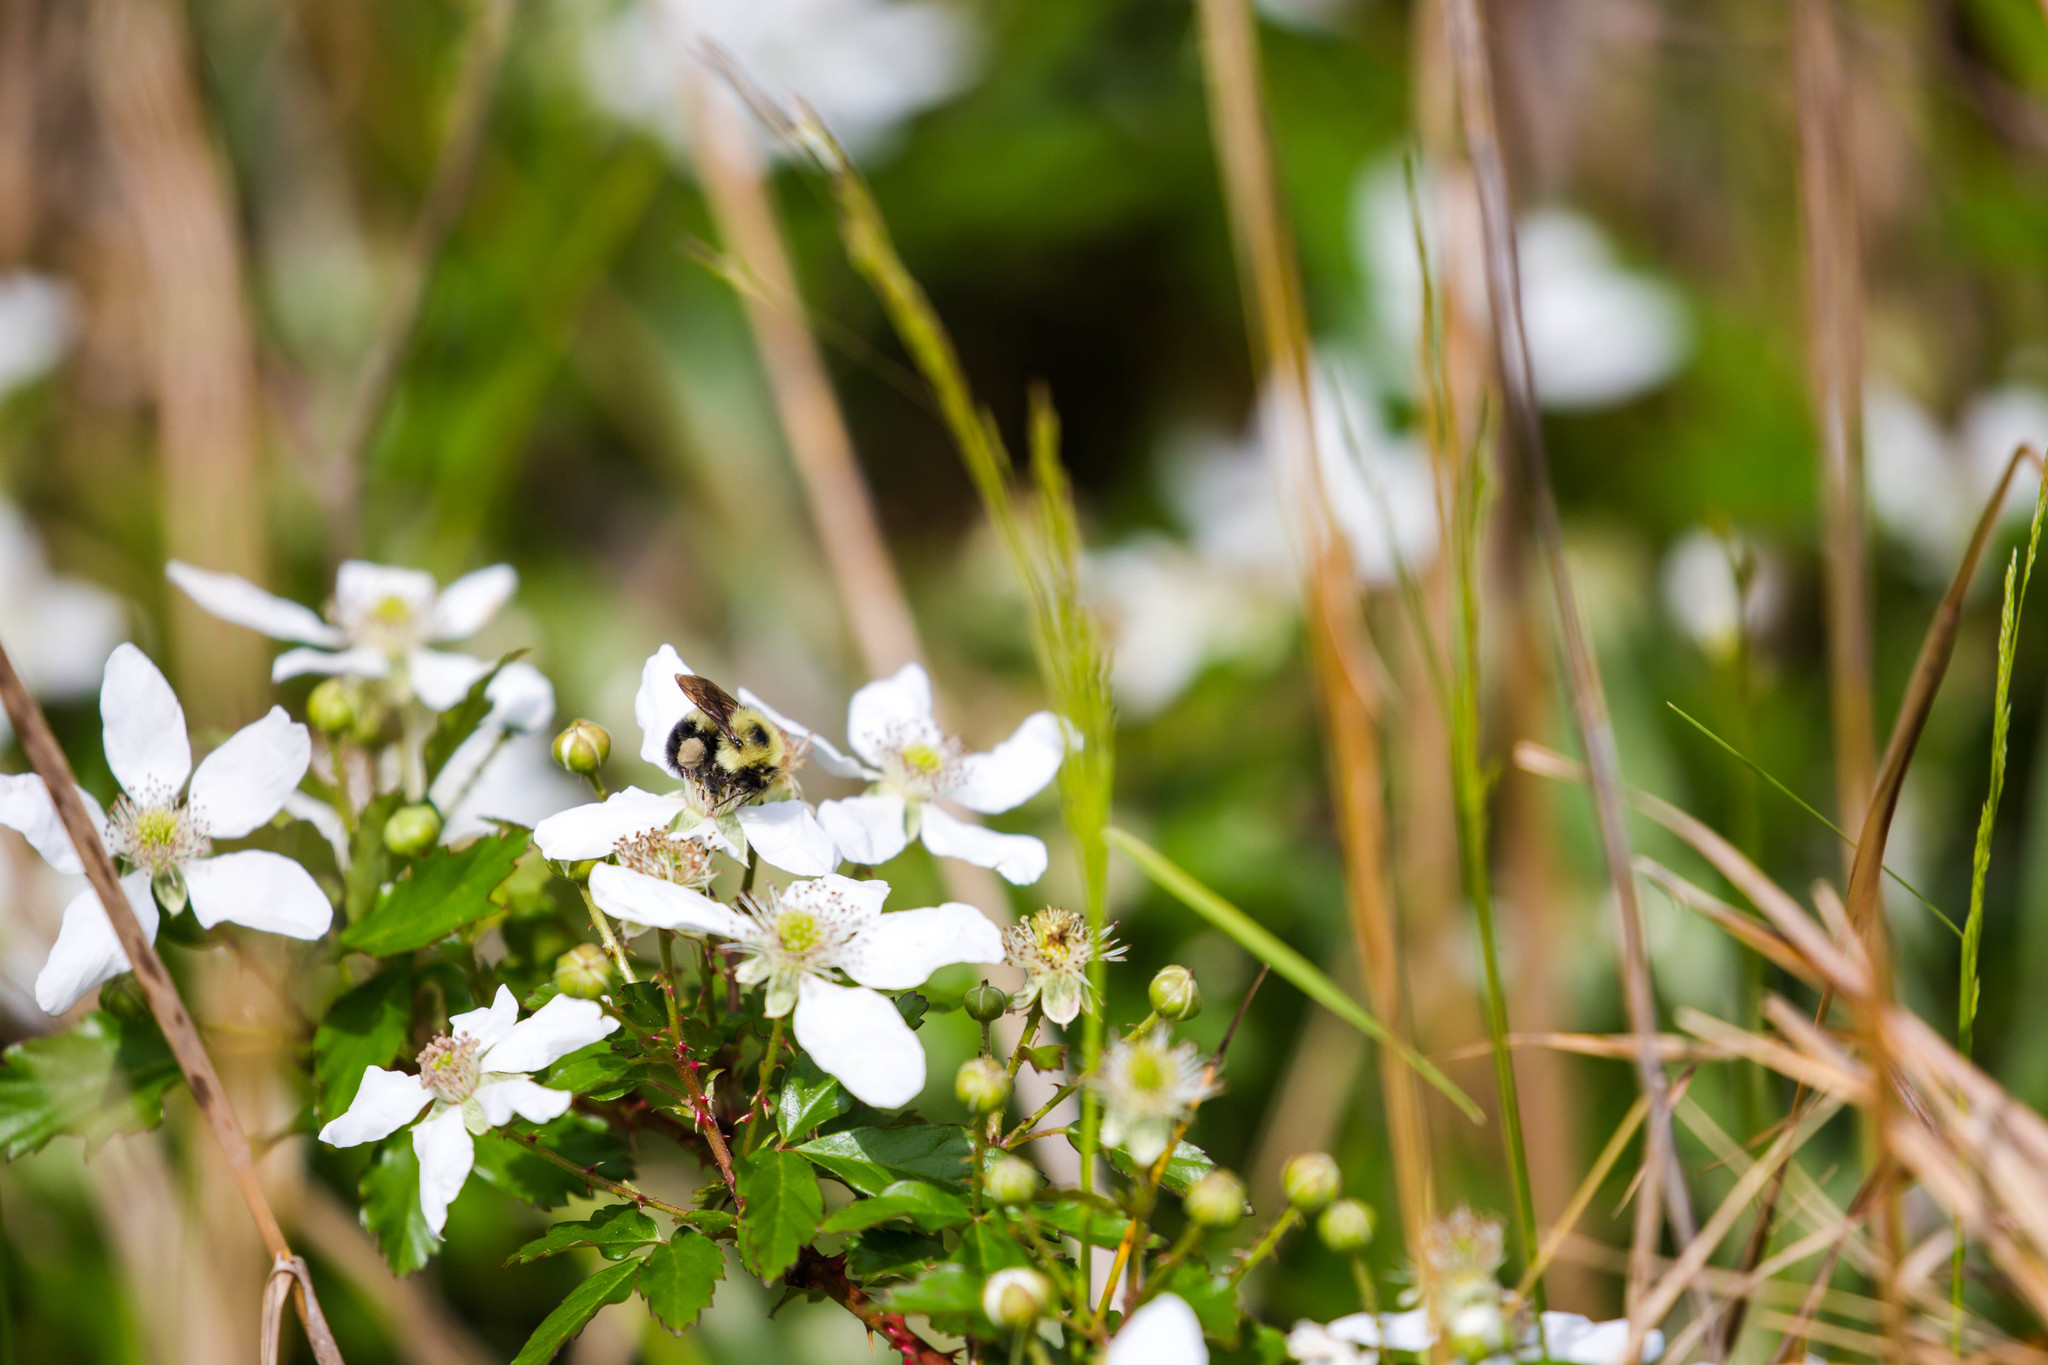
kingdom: Animalia
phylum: Arthropoda
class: Insecta
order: Hymenoptera
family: Apidae
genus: Bombus
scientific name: Bombus bimaculatus
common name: Two-spotted bumble bee
